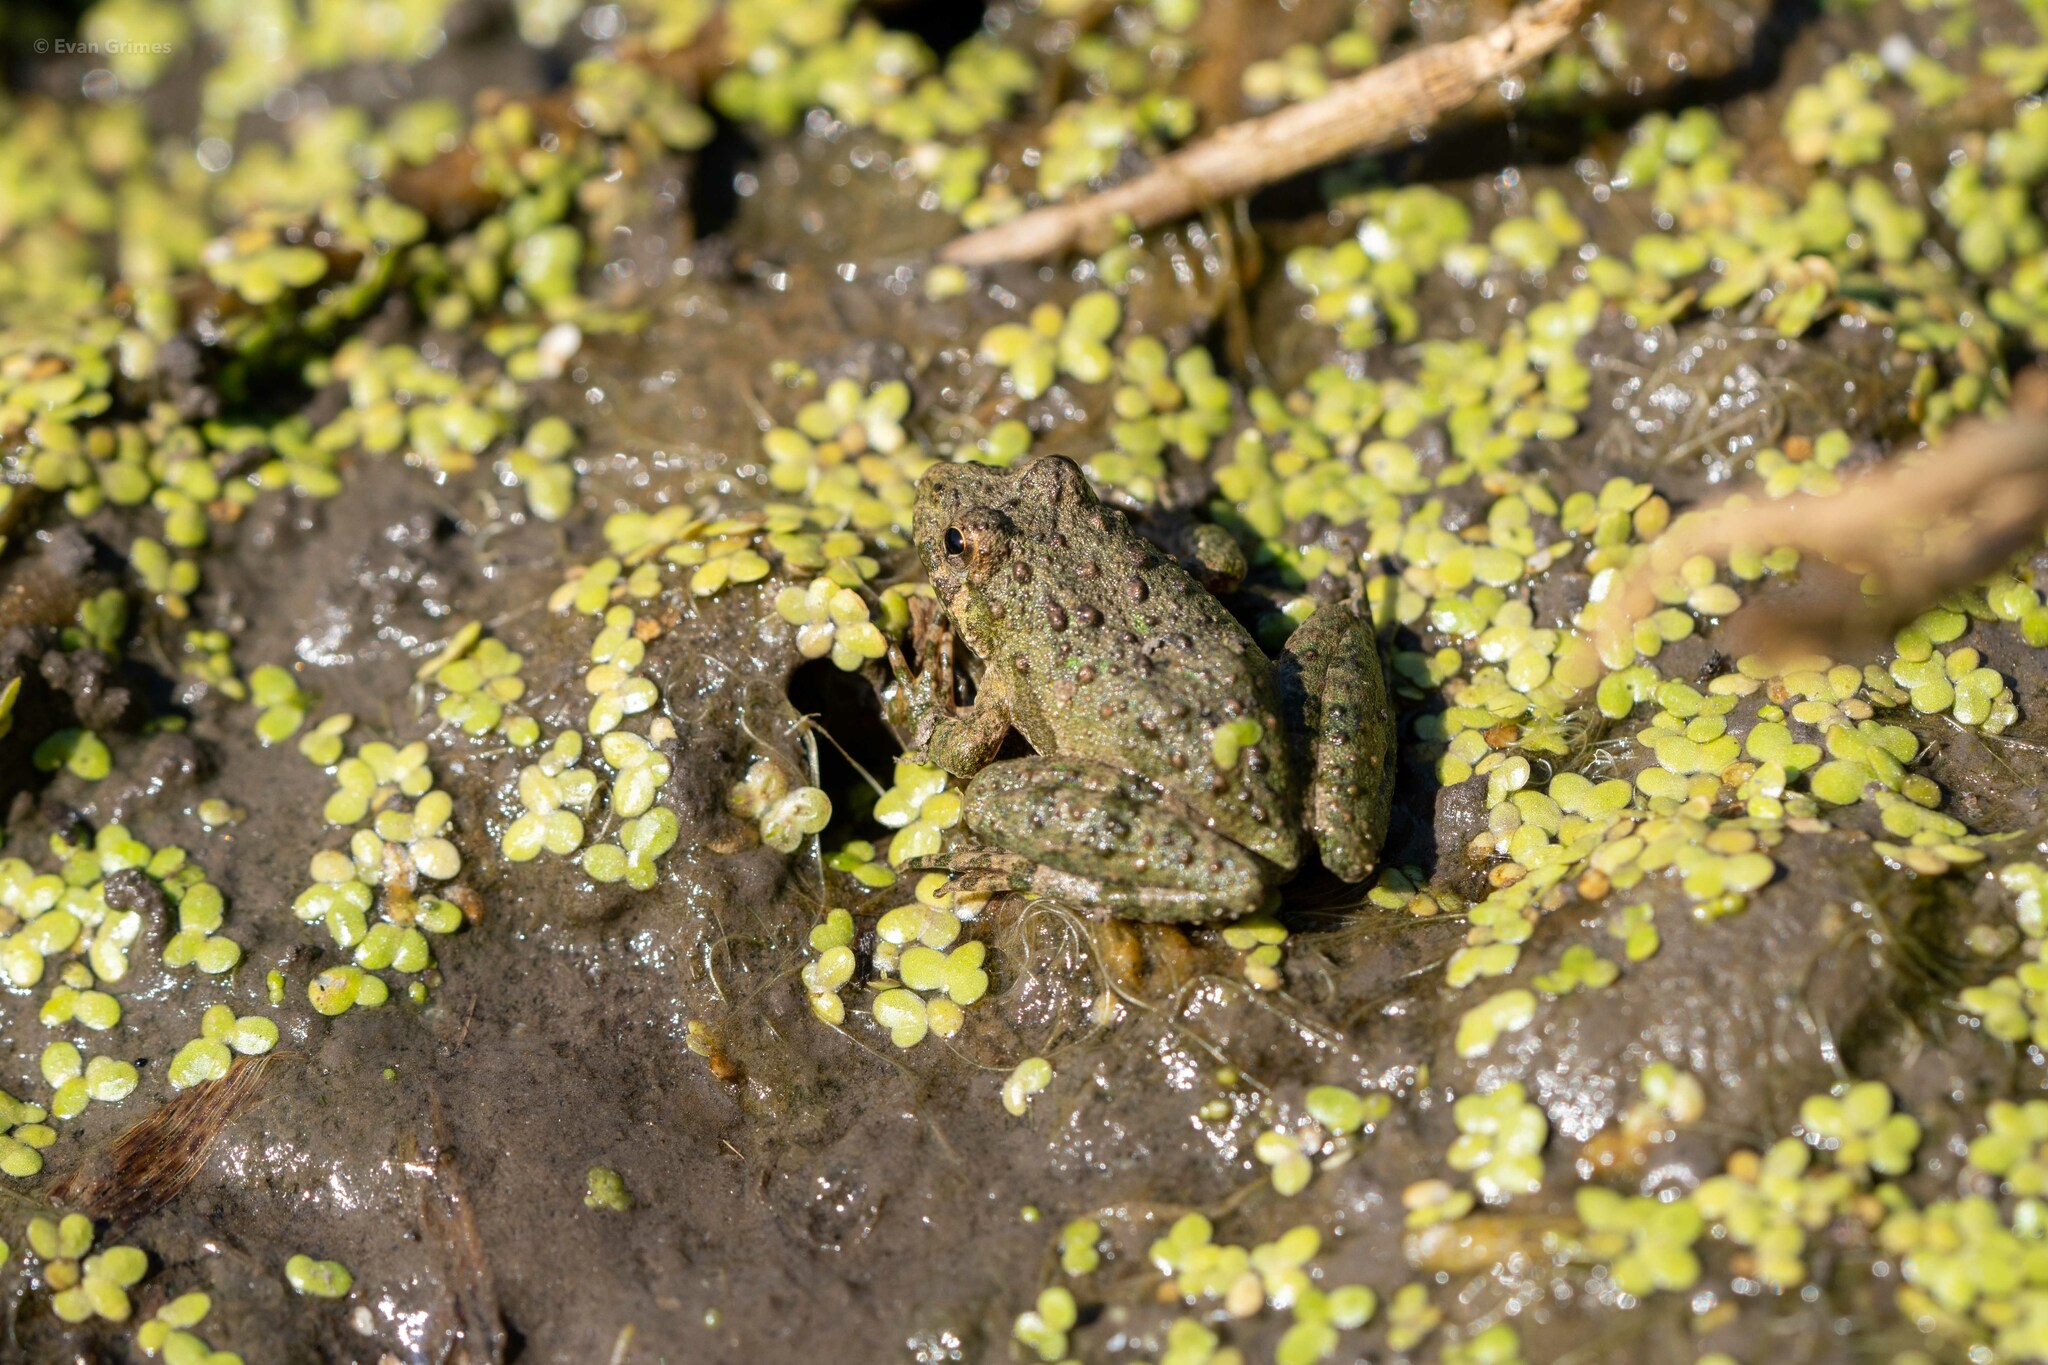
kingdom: Animalia
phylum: Chordata
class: Amphibia
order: Anura
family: Hylidae
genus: Acris
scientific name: Acris blanchardi
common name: Blanchard's cricket frog
